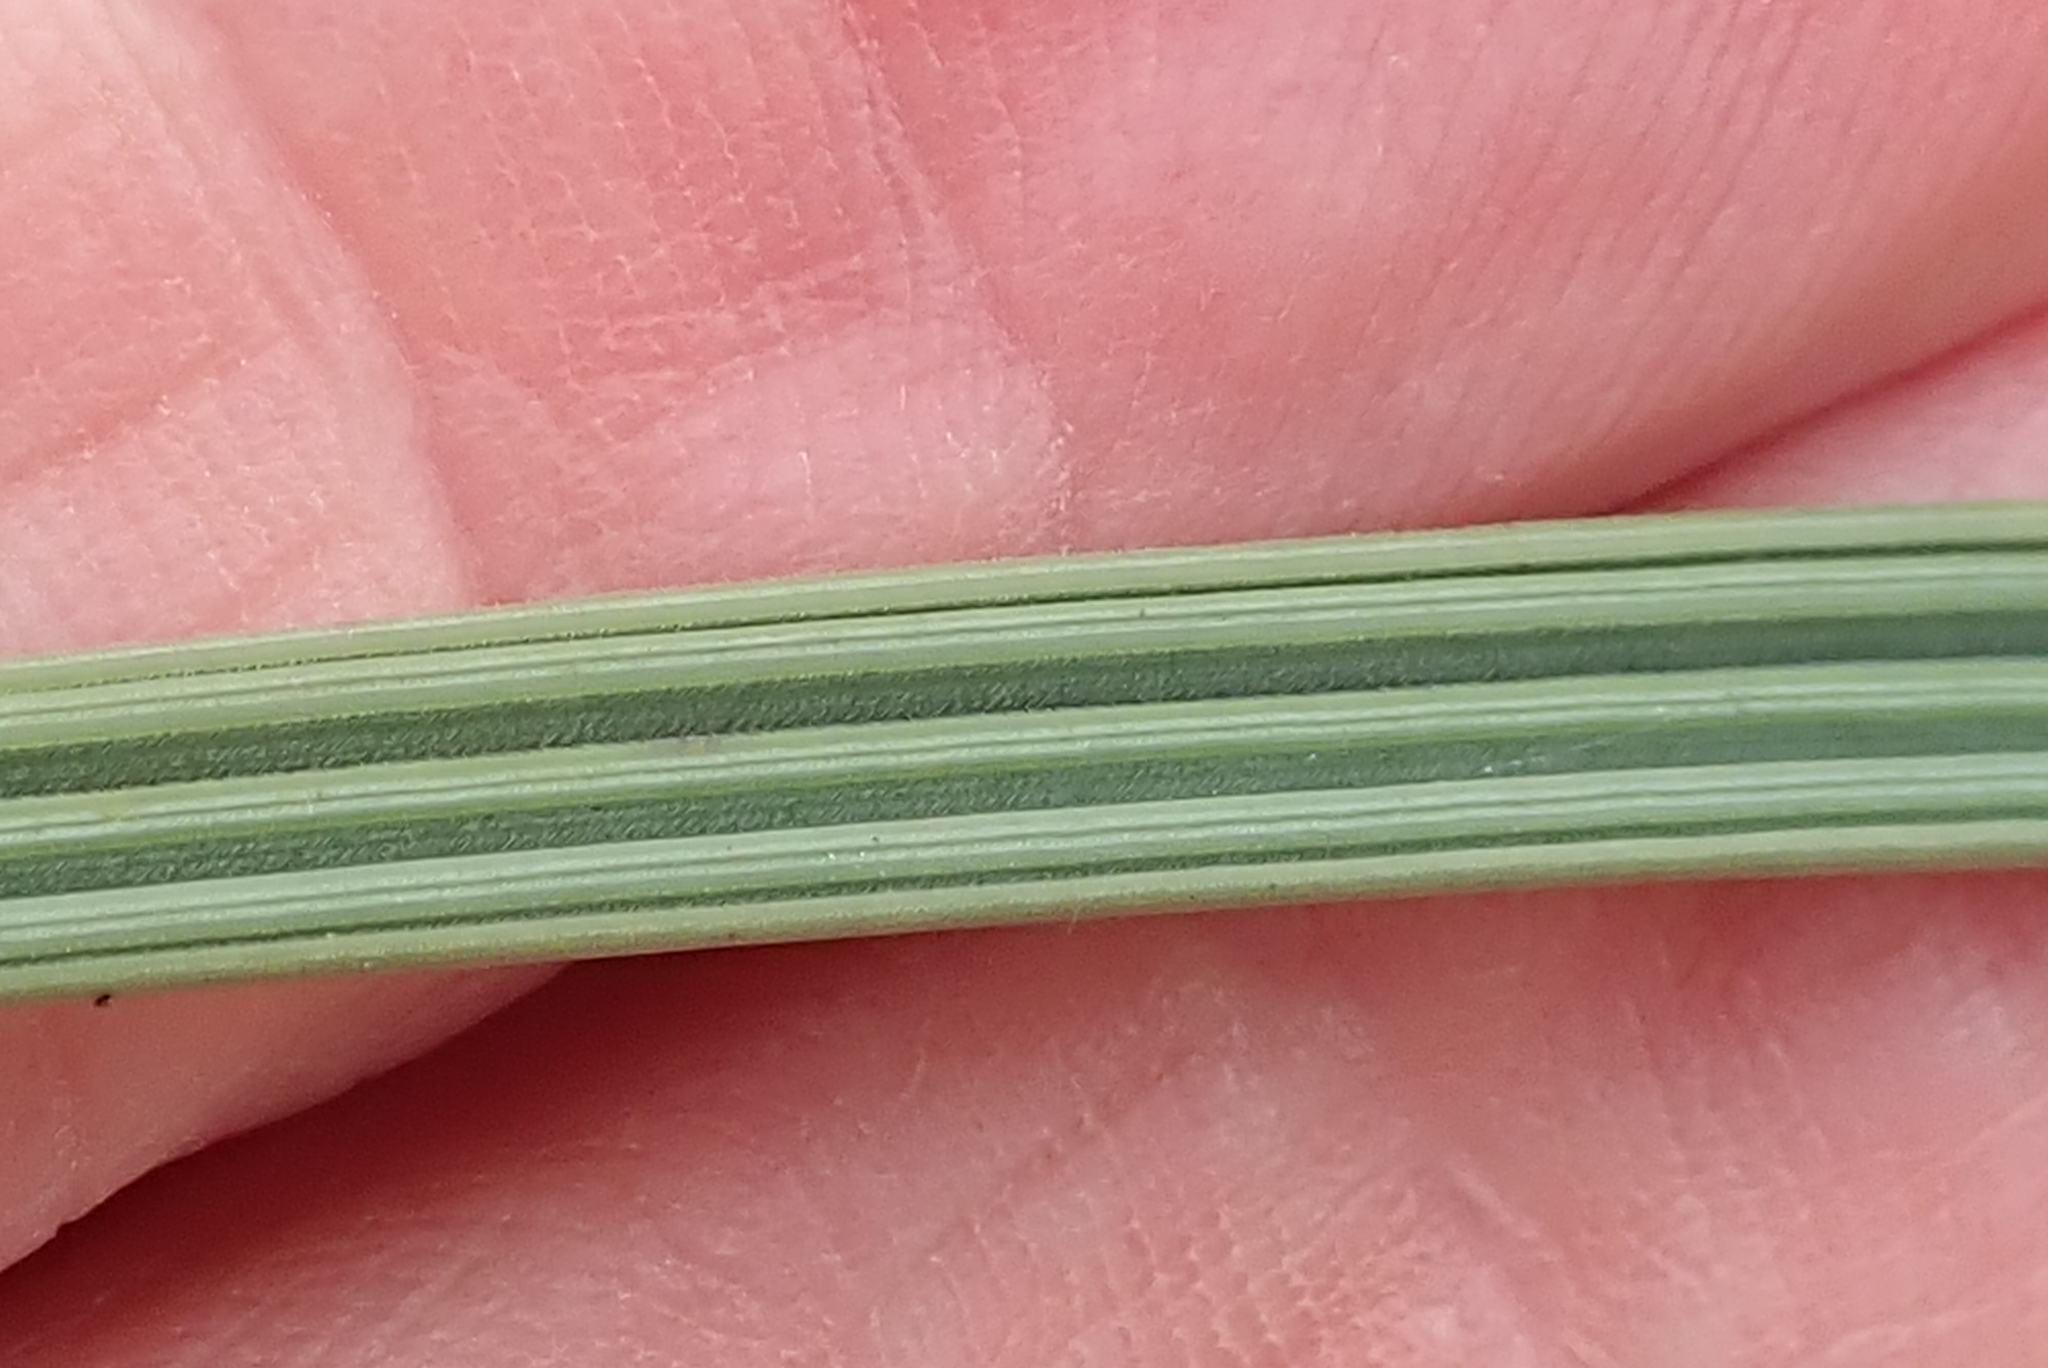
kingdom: Plantae
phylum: Tracheophyta
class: Liliopsida
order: Asparagales
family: Iridaceae
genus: Babiana
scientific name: Babiana hirsuta
